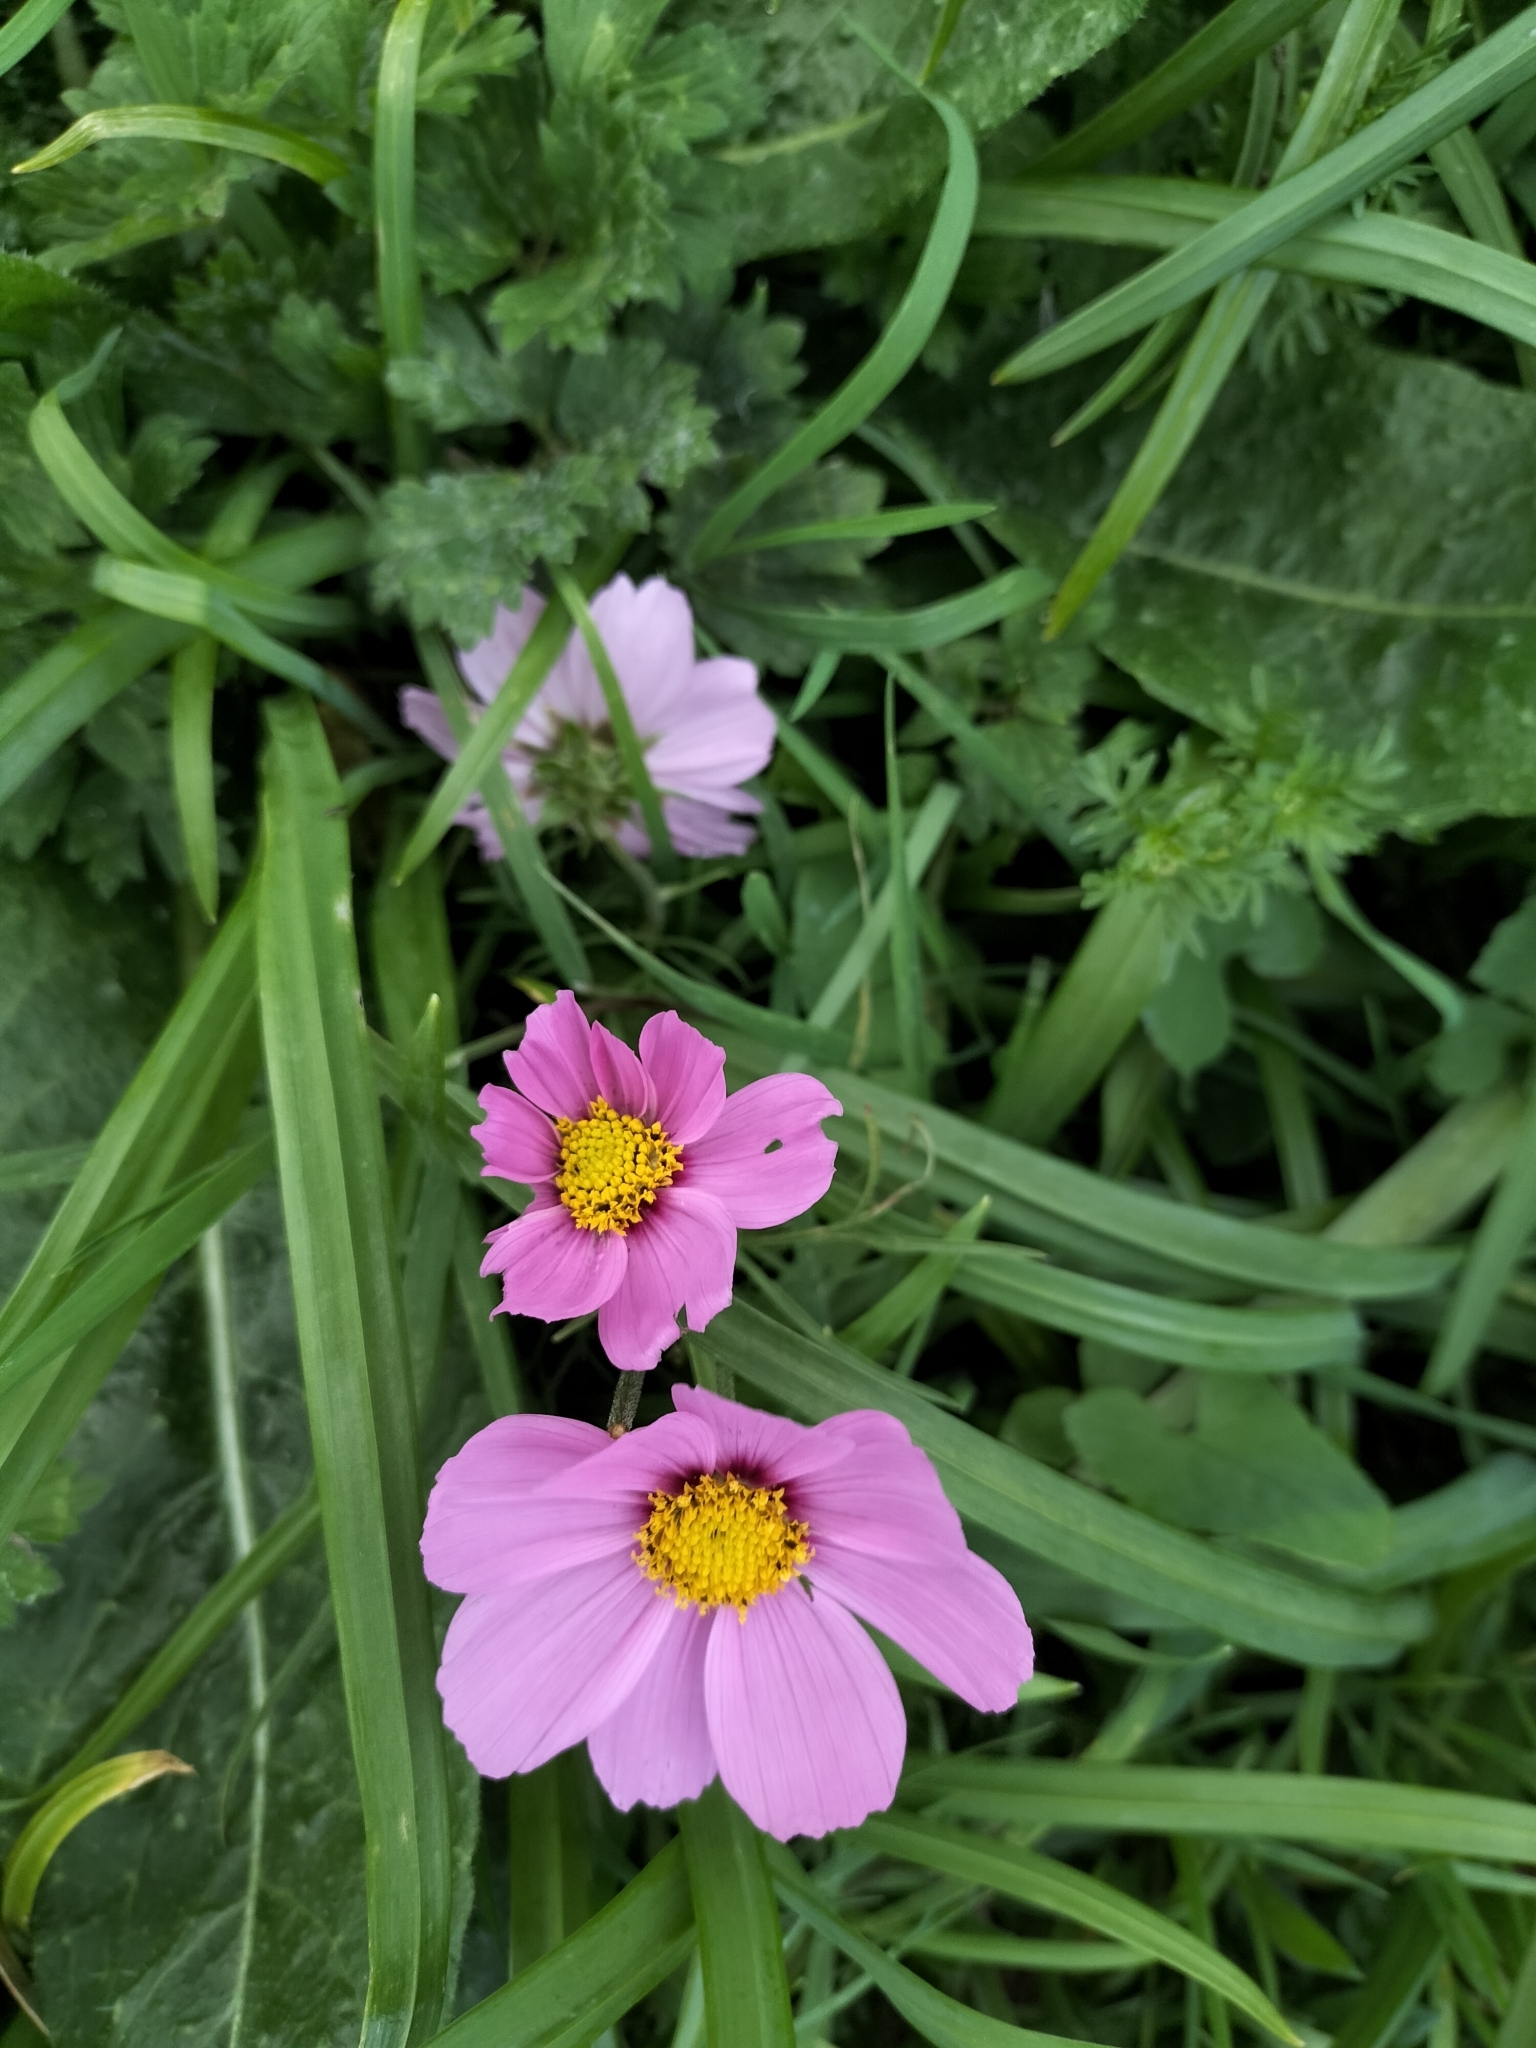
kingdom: Plantae
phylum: Tracheophyta
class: Magnoliopsida
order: Asterales
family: Asteraceae
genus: Cosmos
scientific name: Cosmos bipinnatus
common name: Garden cosmos
